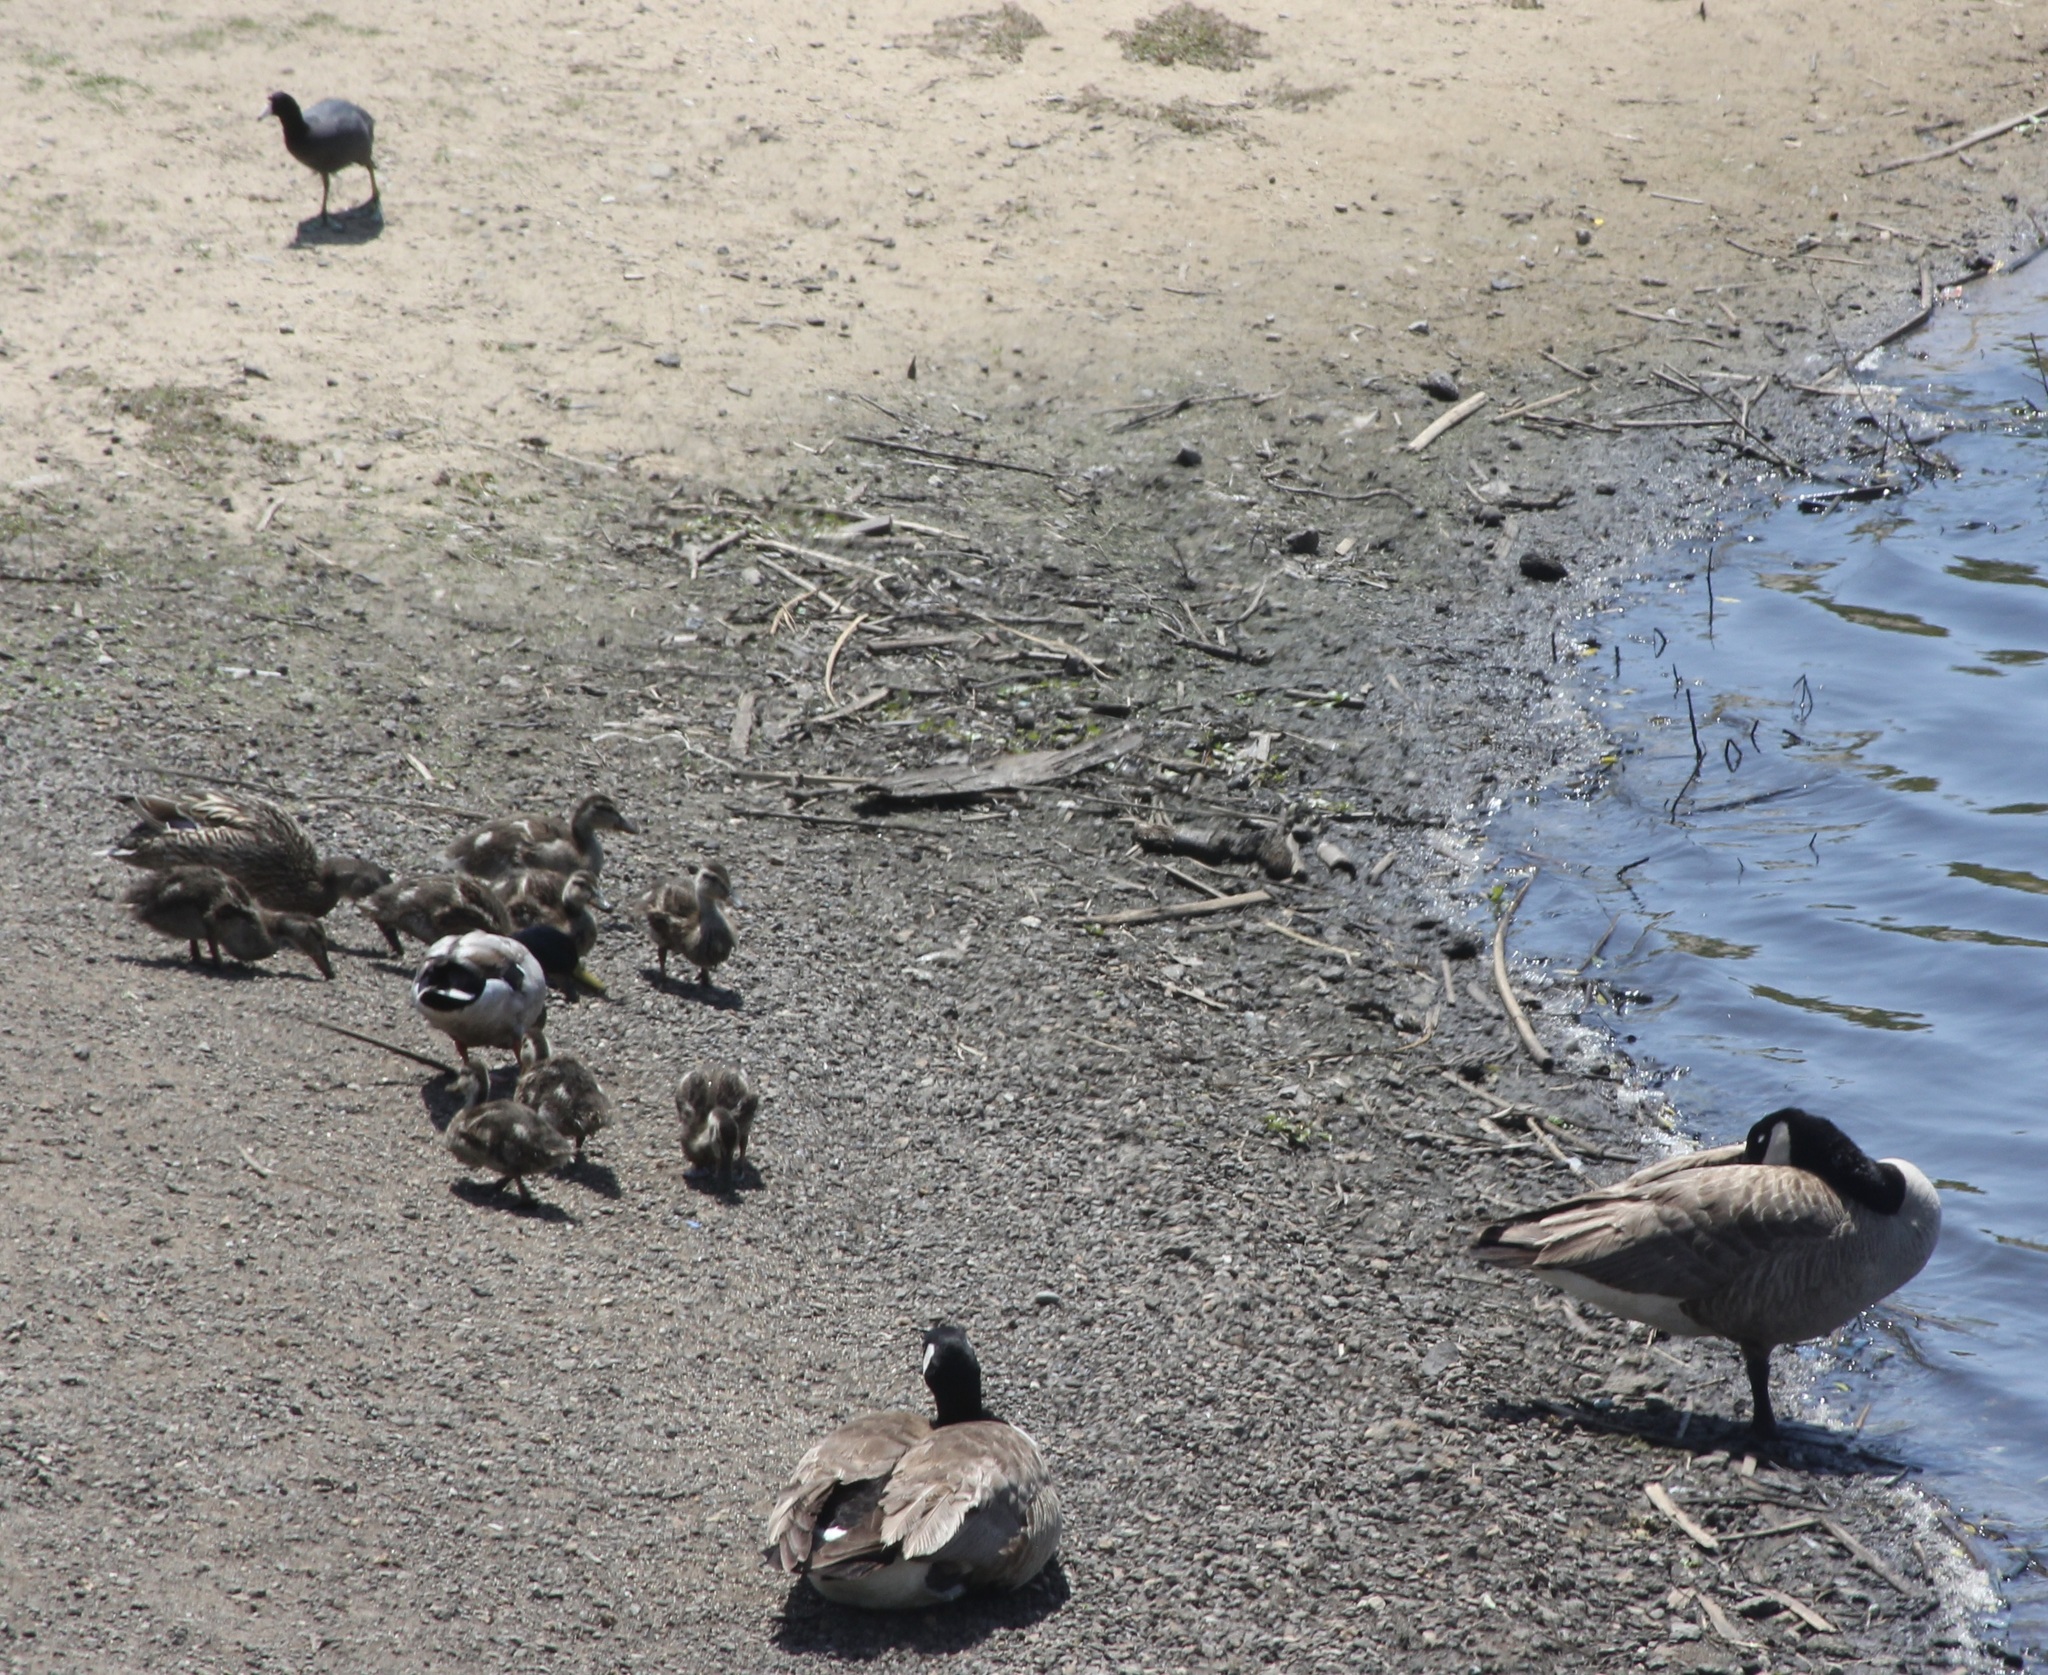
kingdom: Animalia
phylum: Chordata
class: Aves
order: Gruiformes
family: Rallidae
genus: Fulica
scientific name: Fulica americana
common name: American coot
